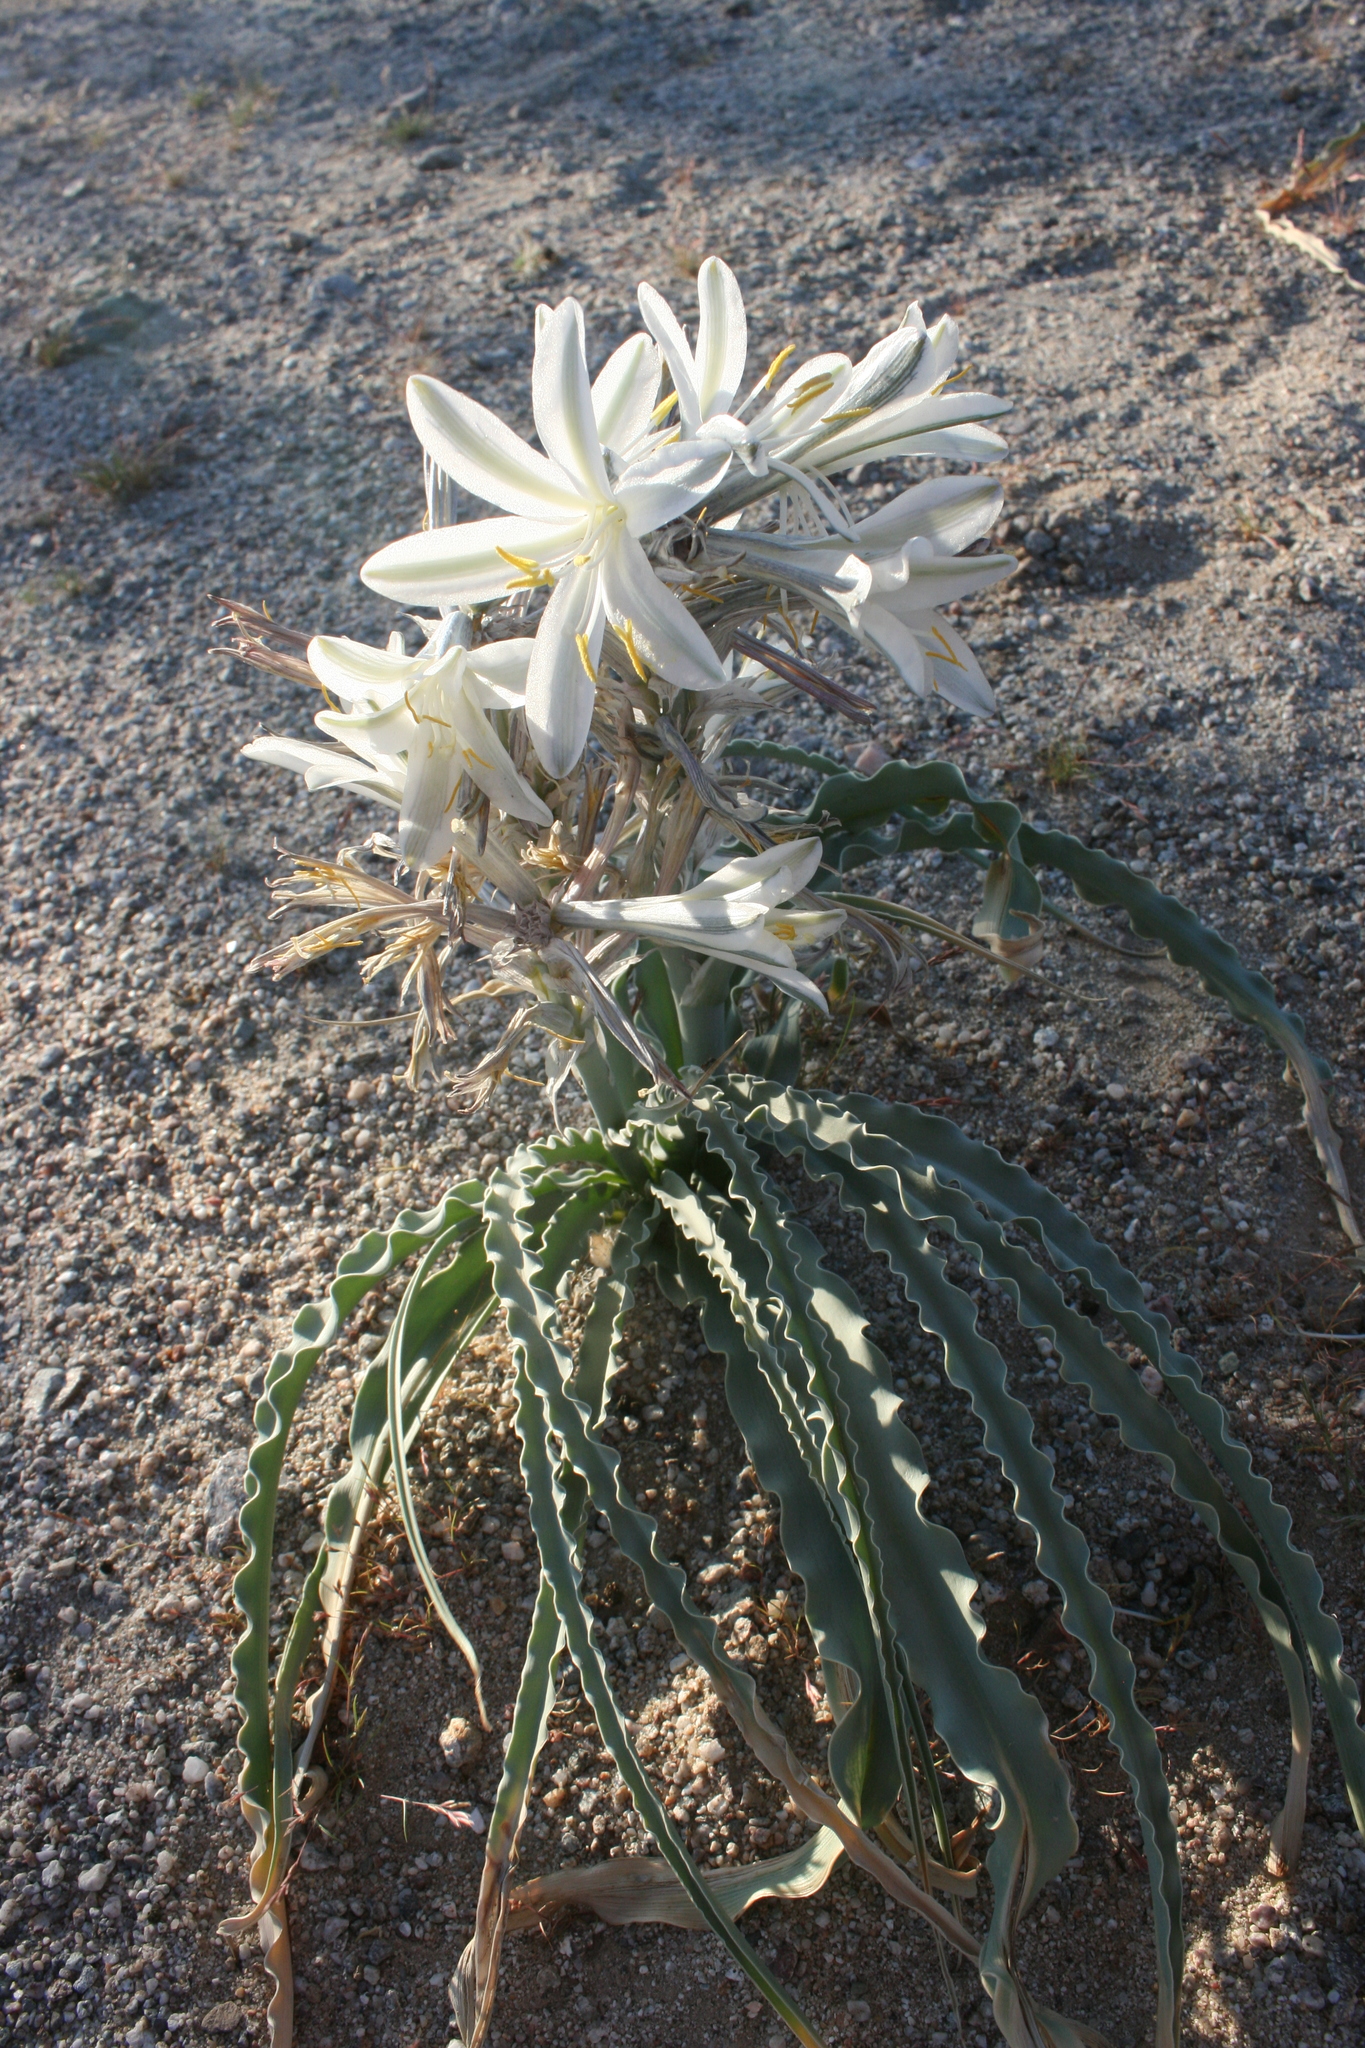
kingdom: Plantae
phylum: Tracheophyta
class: Liliopsida
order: Asparagales
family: Asparagaceae
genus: Hesperocallis
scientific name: Hesperocallis undulata
